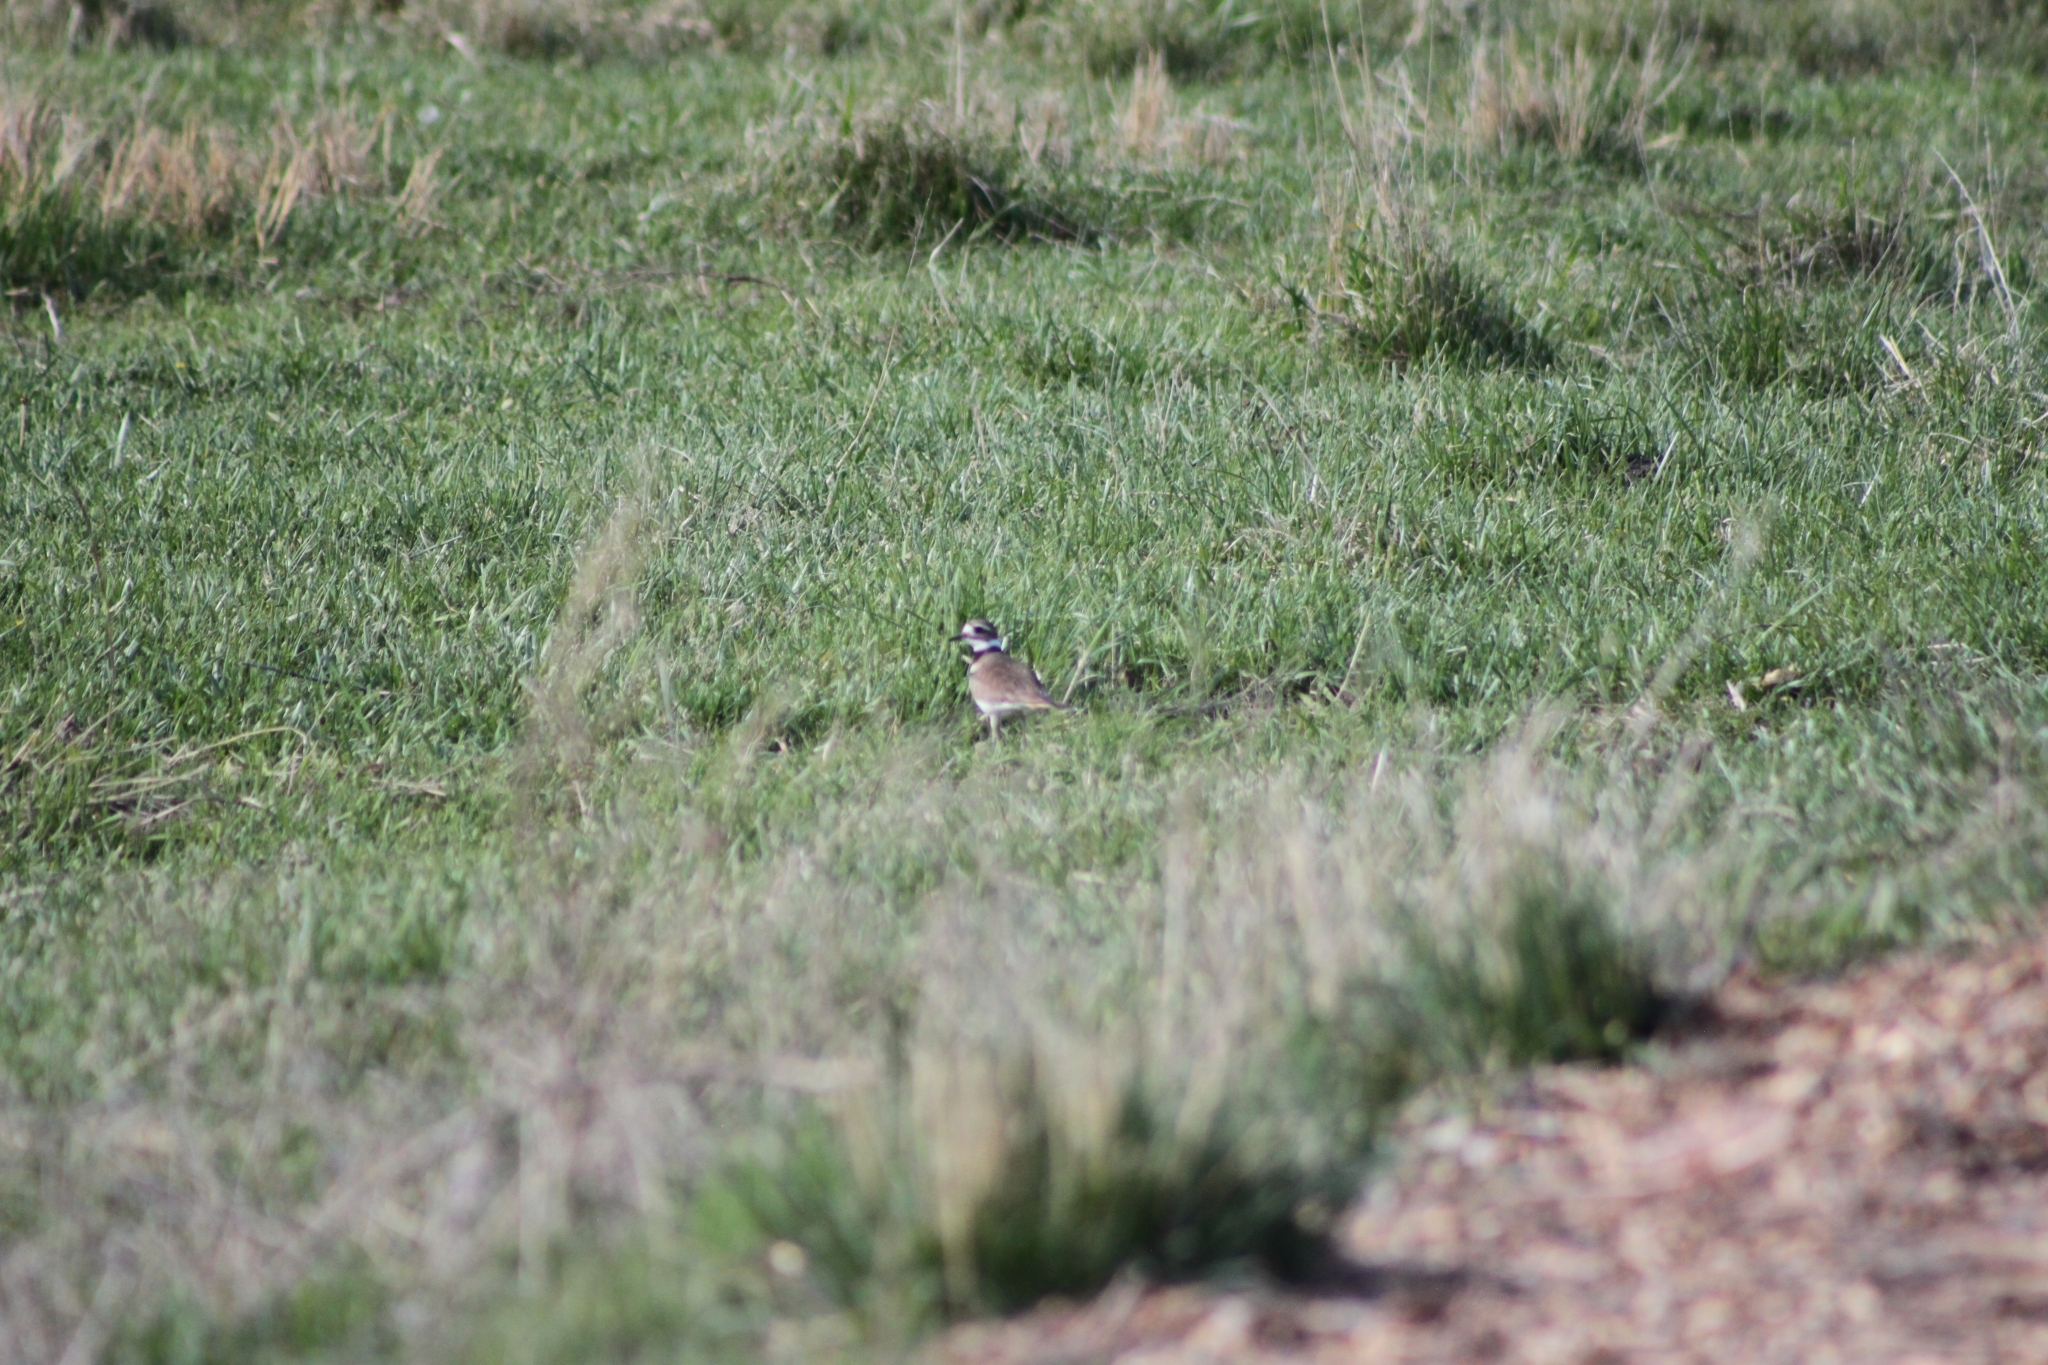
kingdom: Animalia
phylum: Chordata
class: Aves
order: Charadriiformes
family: Charadriidae
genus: Charadrius
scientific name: Charadrius vociferus
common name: Killdeer
